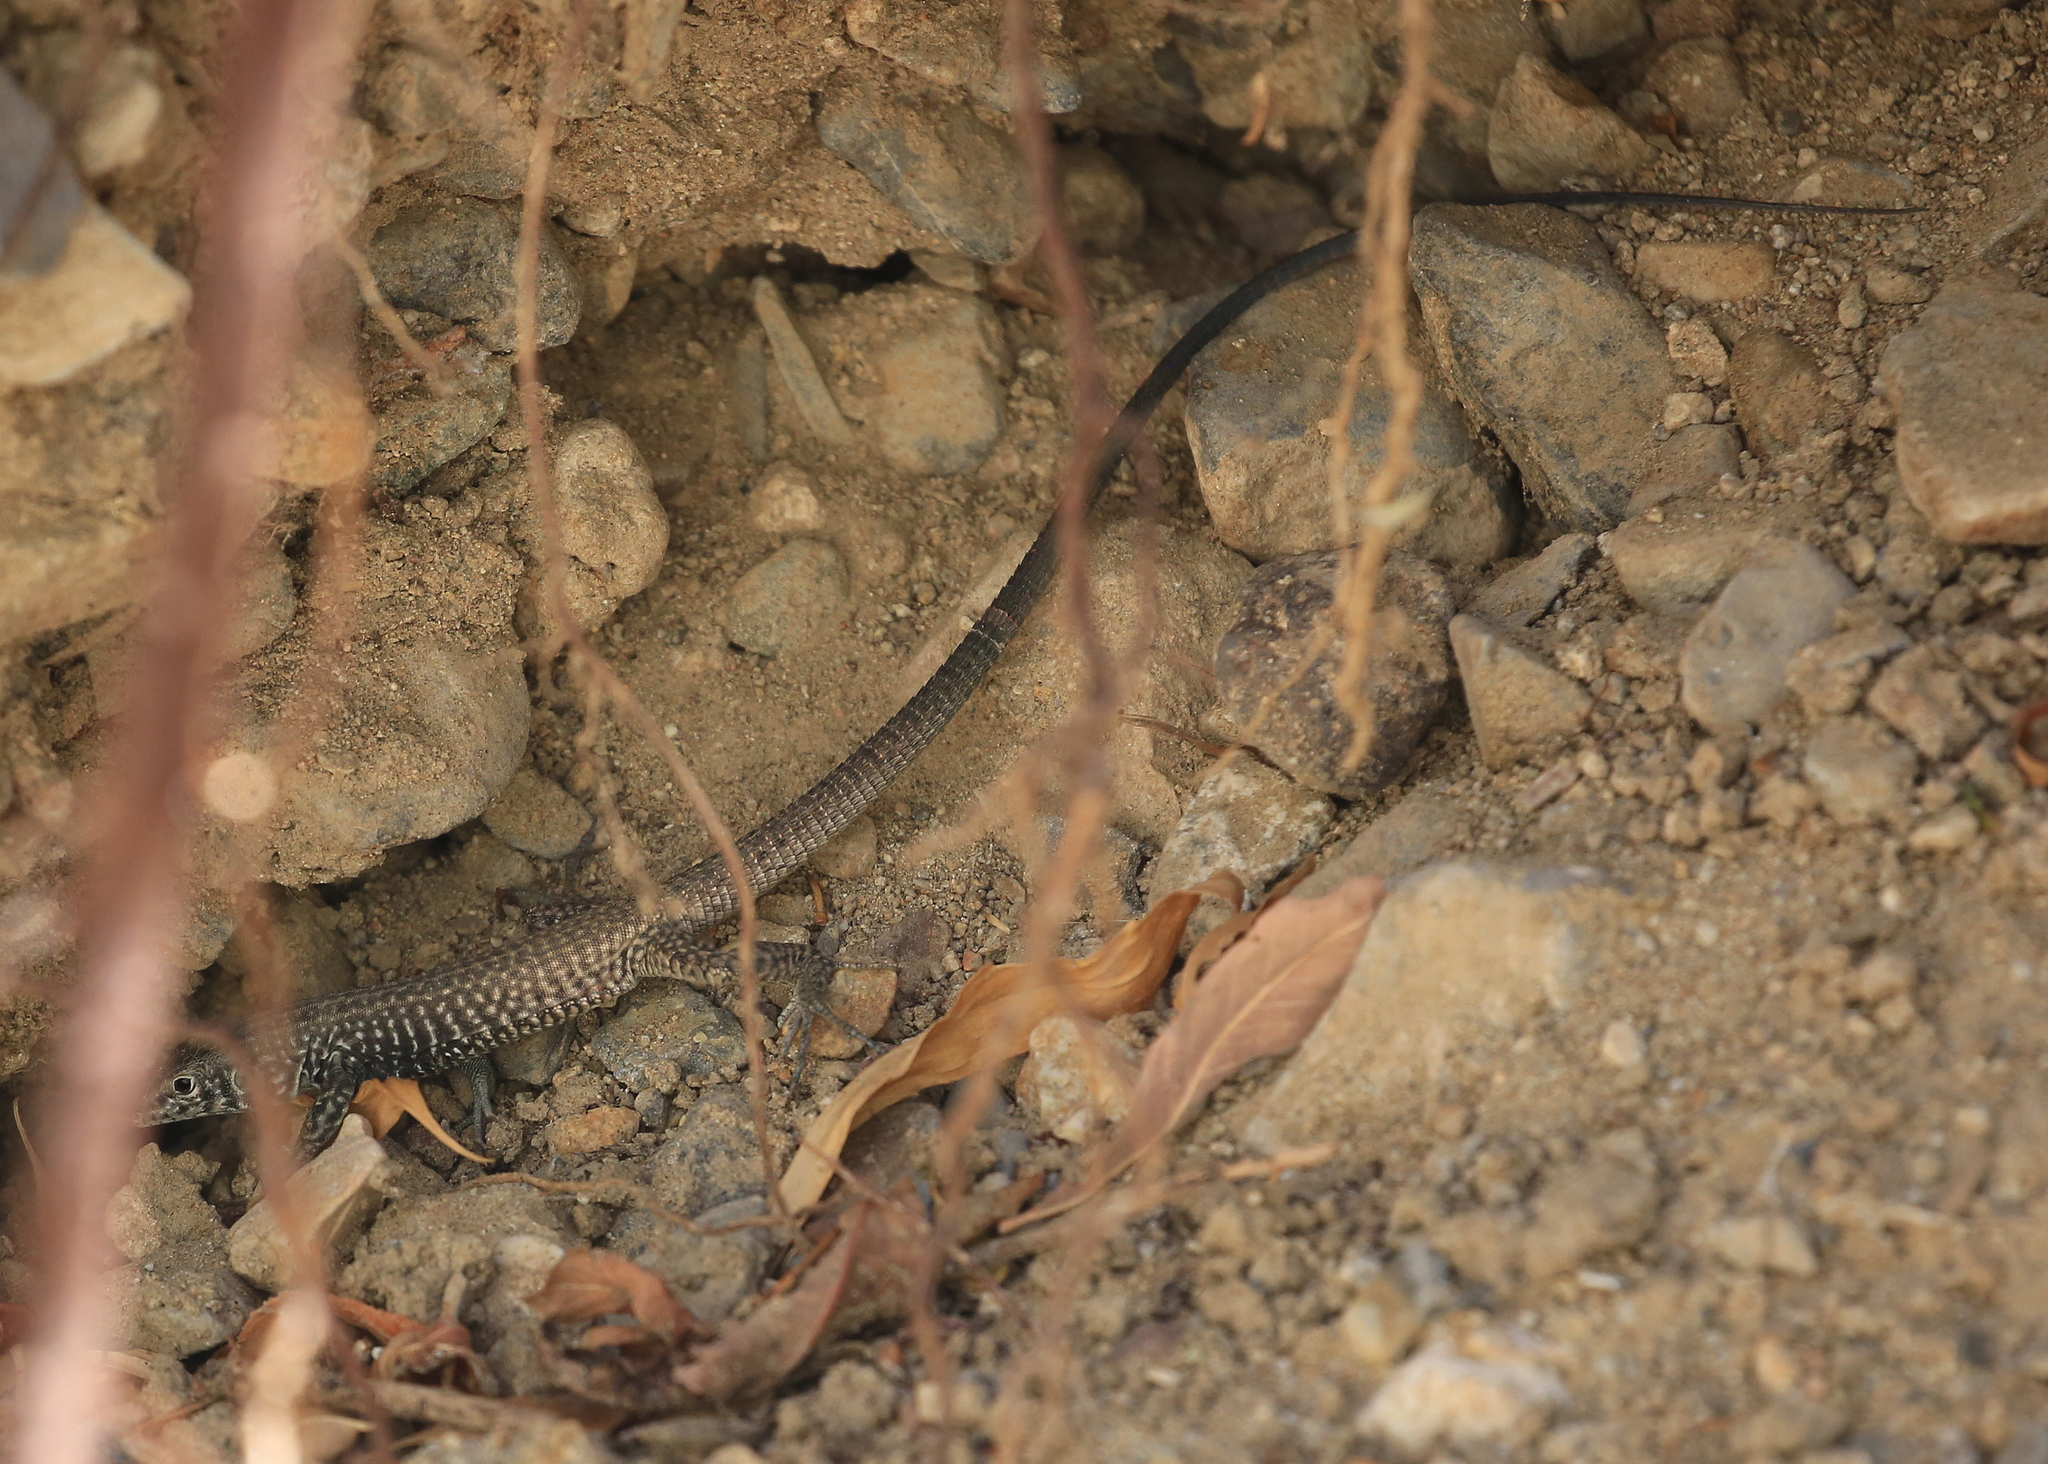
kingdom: Animalia
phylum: Chordata
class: Squamata
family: Teiidae
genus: Aspidoscelis
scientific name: Aspidoscelis tigris
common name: Tiger whiptail
